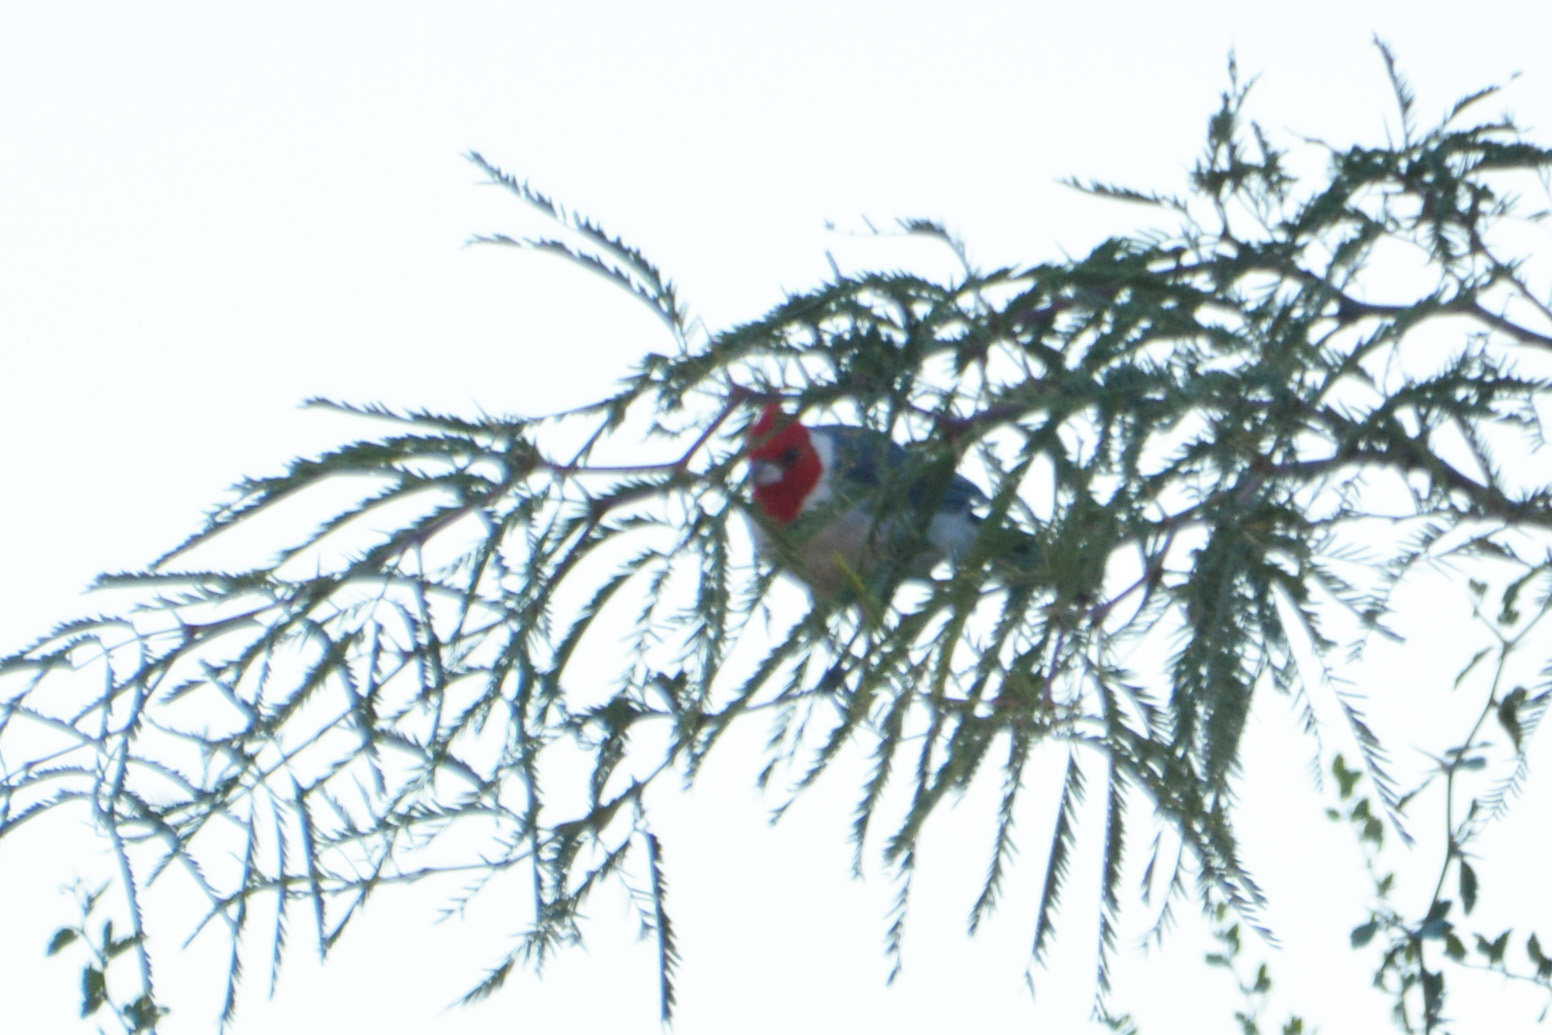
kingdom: Animalia
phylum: Chordata
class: Aves
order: Passeriformes
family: Thraupidae
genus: Paroaria
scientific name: Paroaria coronata
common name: Red-crested cardinal
